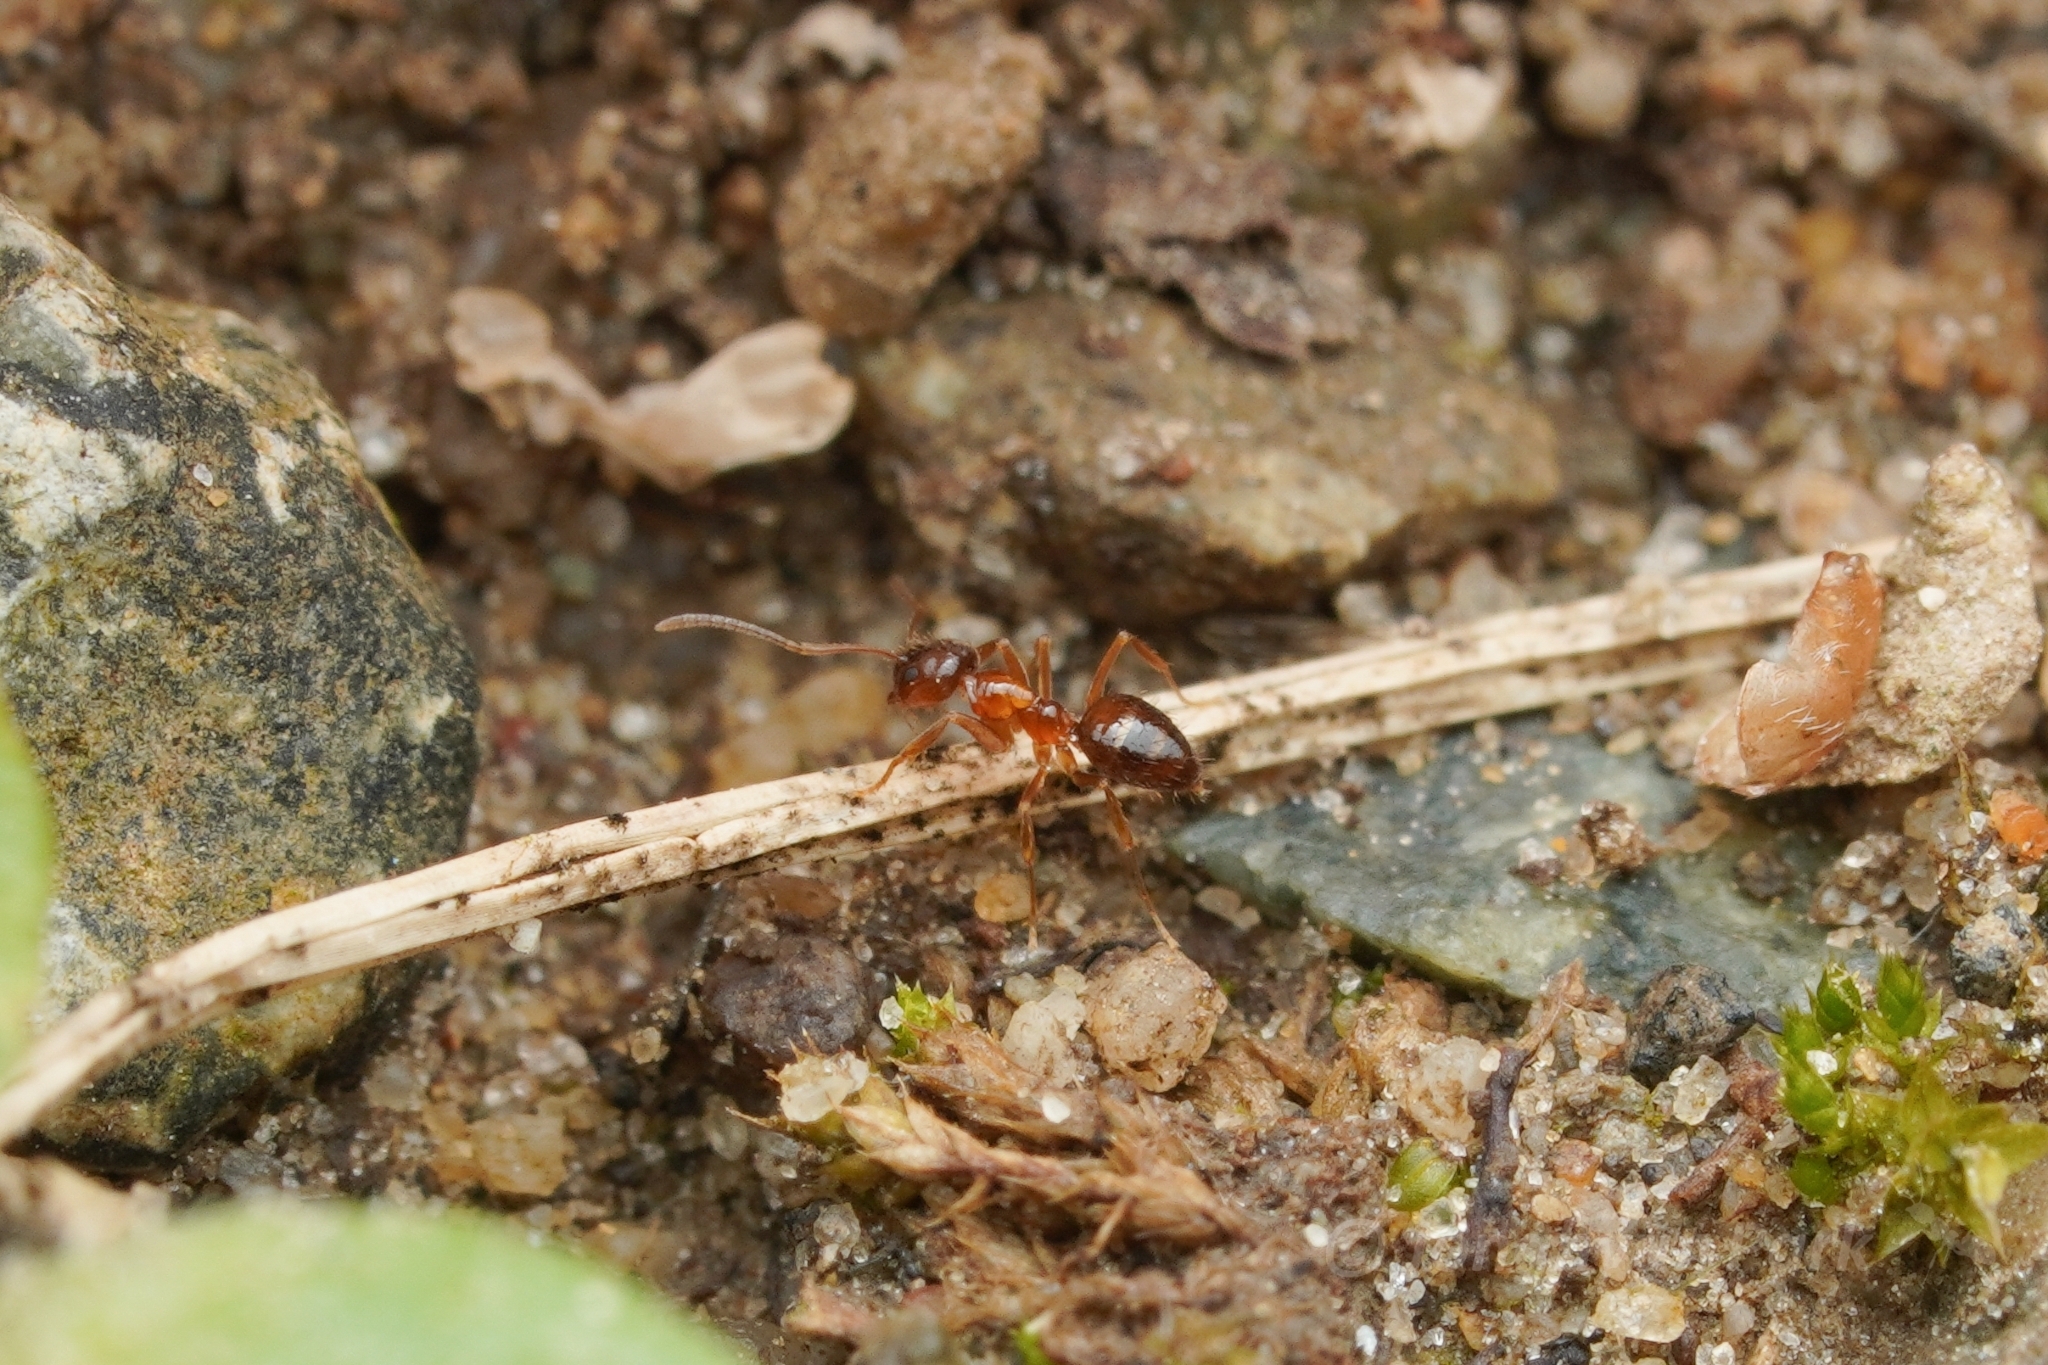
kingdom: Animalia
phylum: Arthropoda
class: Insecta
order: Hymenoptera
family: Formicidae
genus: Paratrechina
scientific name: Paratrechina flavipes
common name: Eastern asian formicine ant
